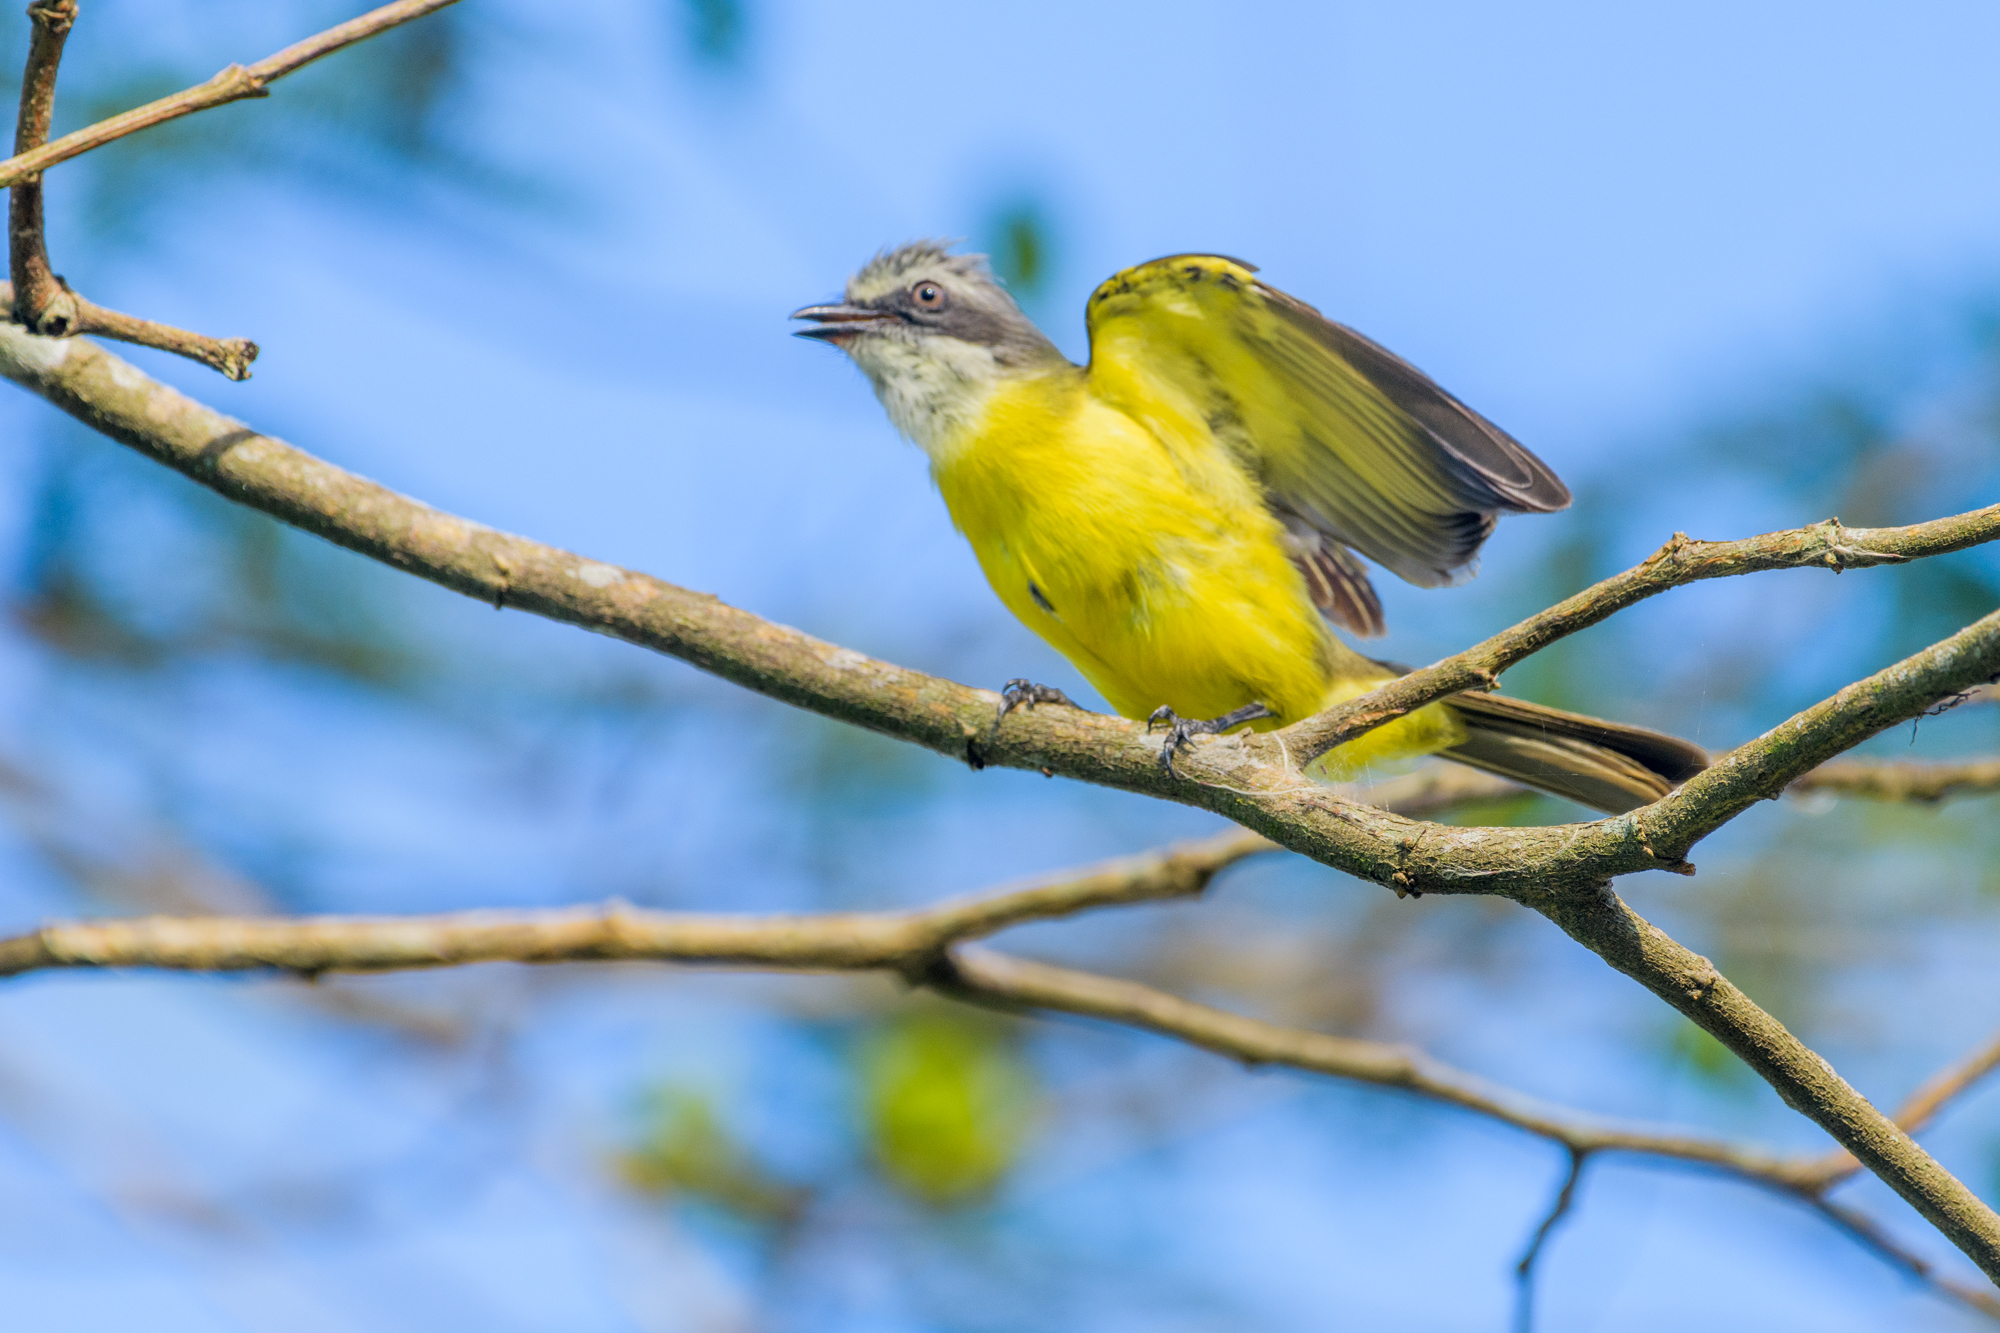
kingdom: Animalia
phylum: Chordata
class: Aves
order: Passeriformes
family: Tyrannidae
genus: Myiozetetes
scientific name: Myiozetetes granadensis
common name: Gray-capped flycatcher
